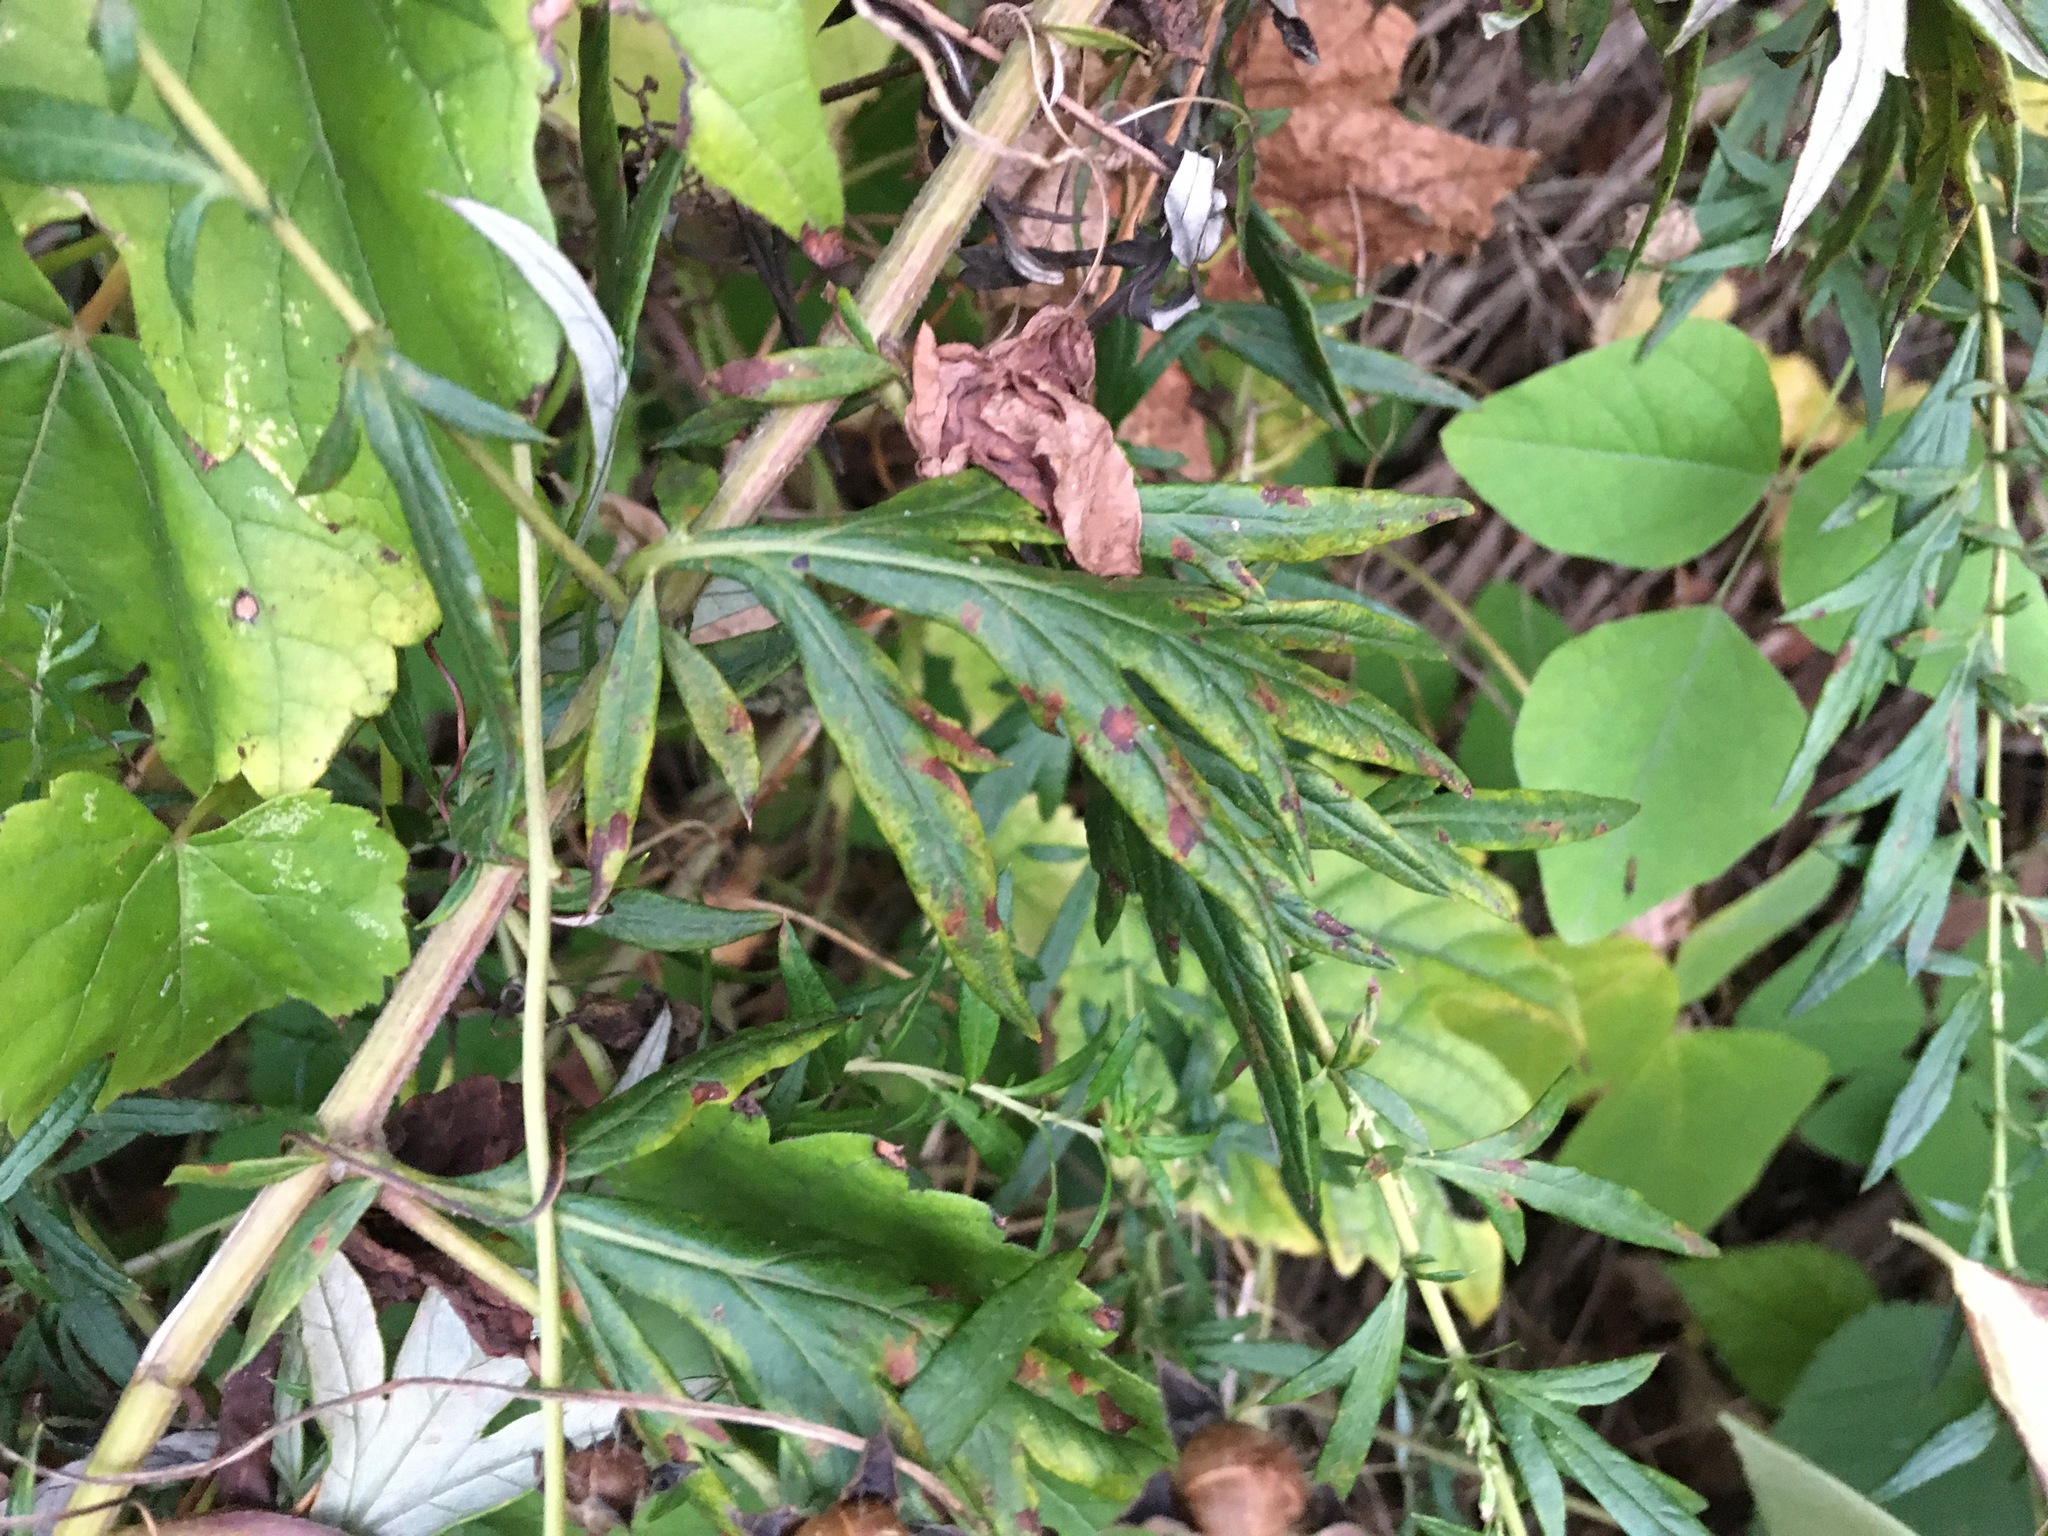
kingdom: Plantae
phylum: Tracheophyta
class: Magnoliopsida
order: Asterales
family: Asteraceae
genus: Artemisia
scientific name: Artemisia vulgaris
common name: Mugwort
